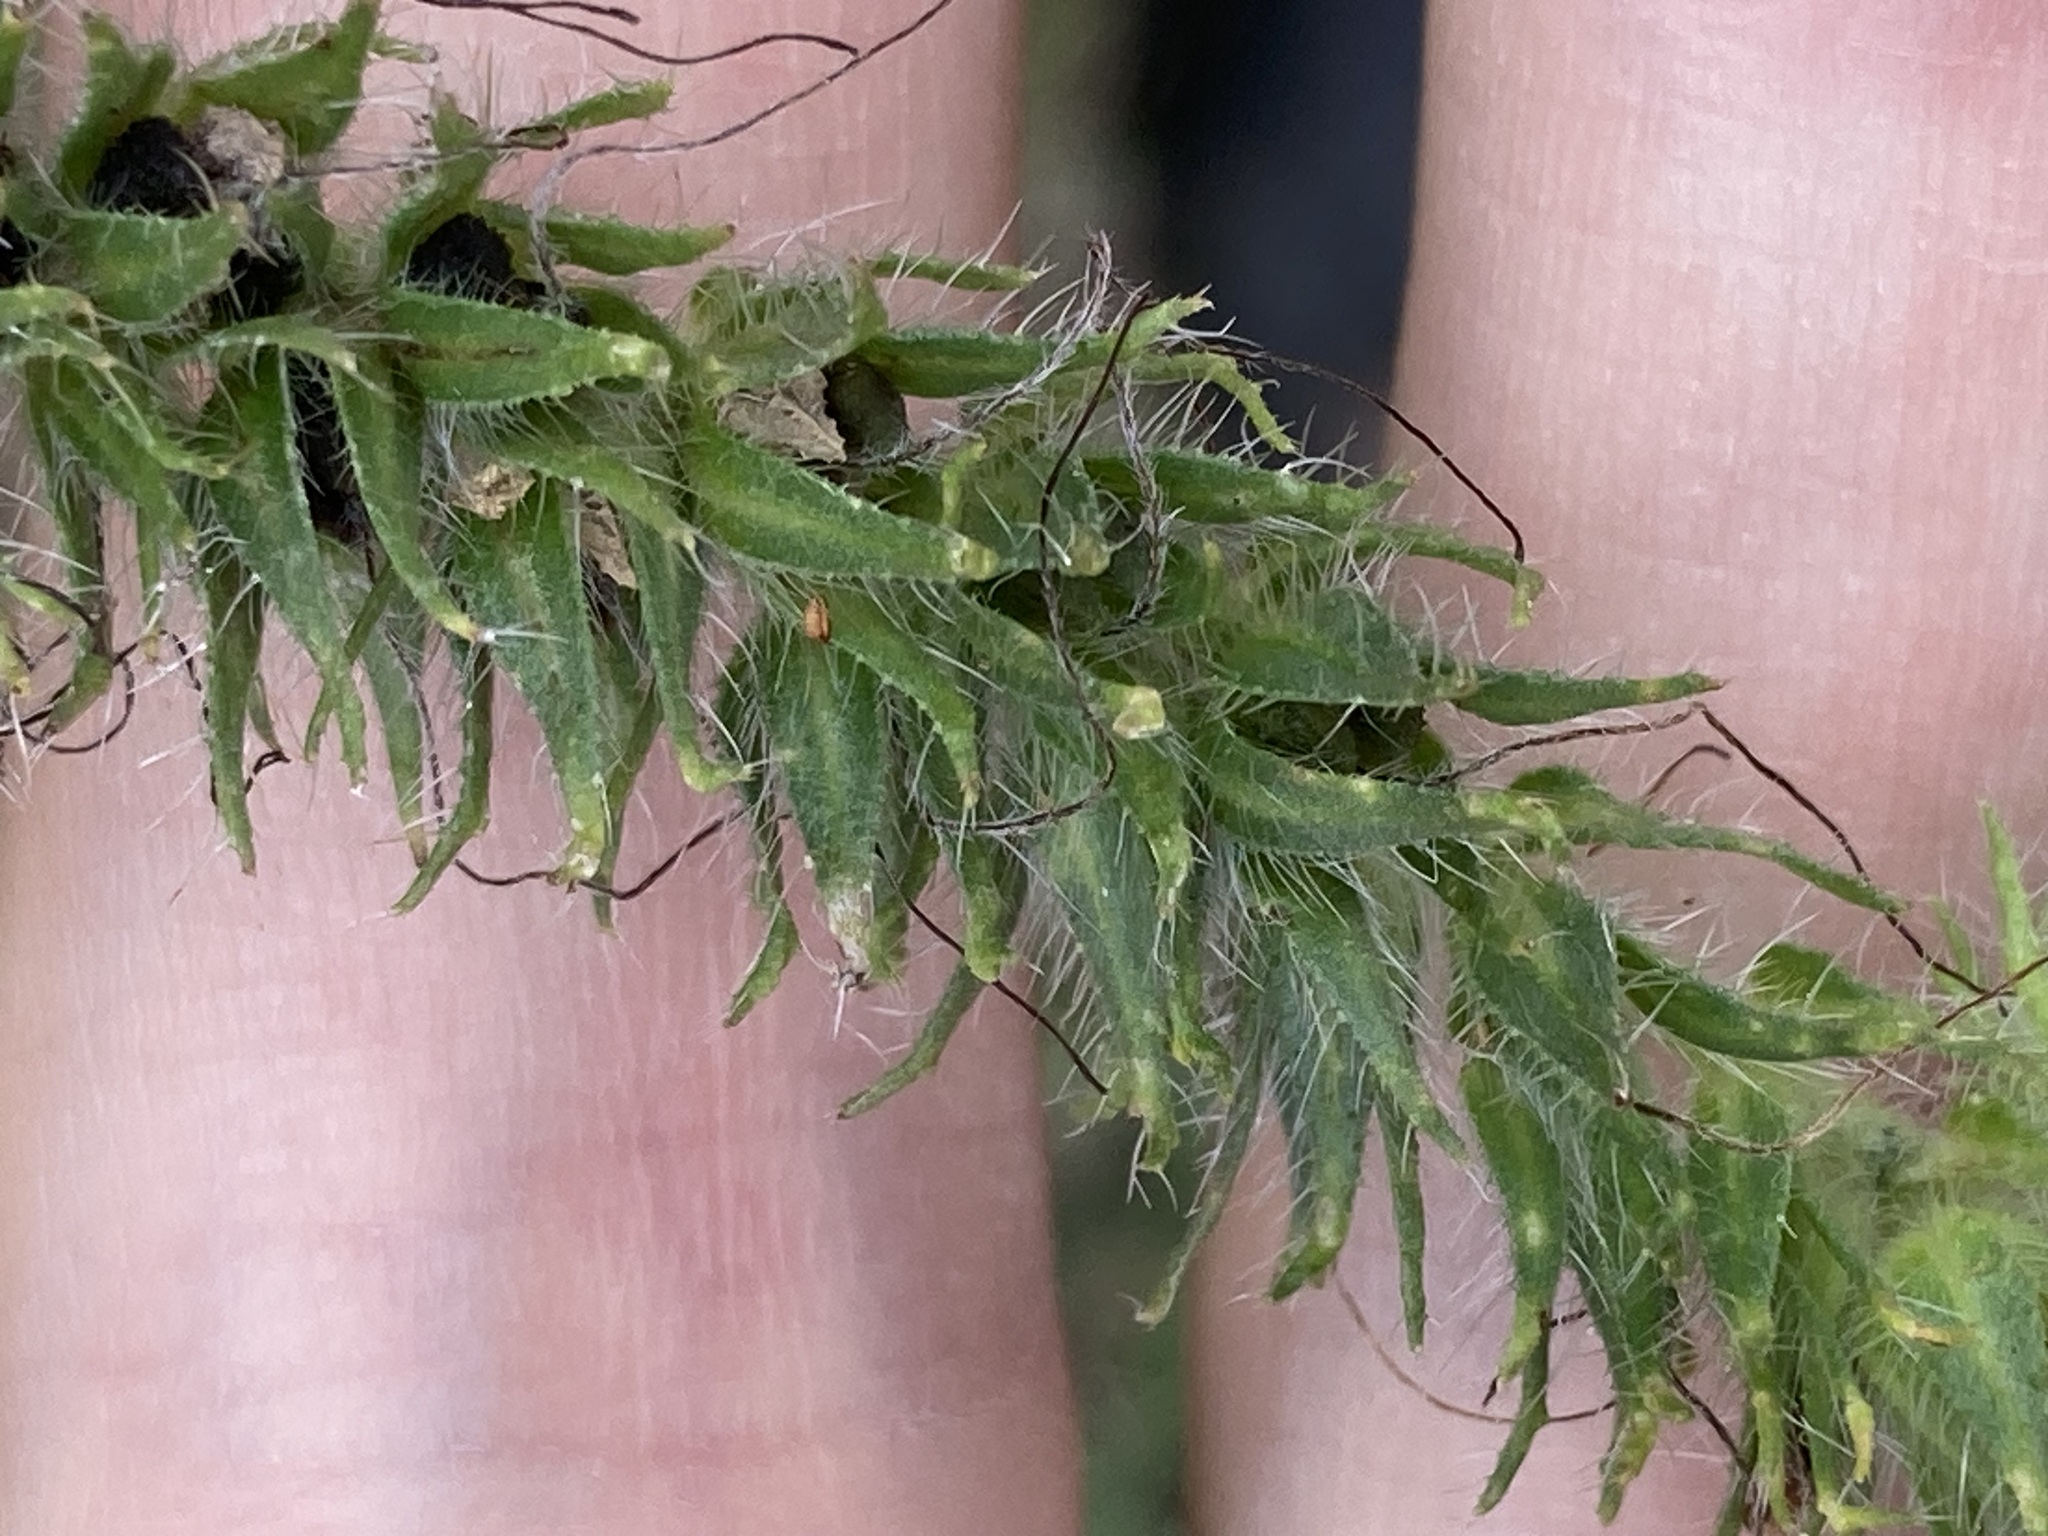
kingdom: Plantae
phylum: Tracheophyta
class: Magnoliopsida
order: Boraginales
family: Boraginaceae
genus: Echium
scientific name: Echium plantagineum
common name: Purple viper's-bugloss
